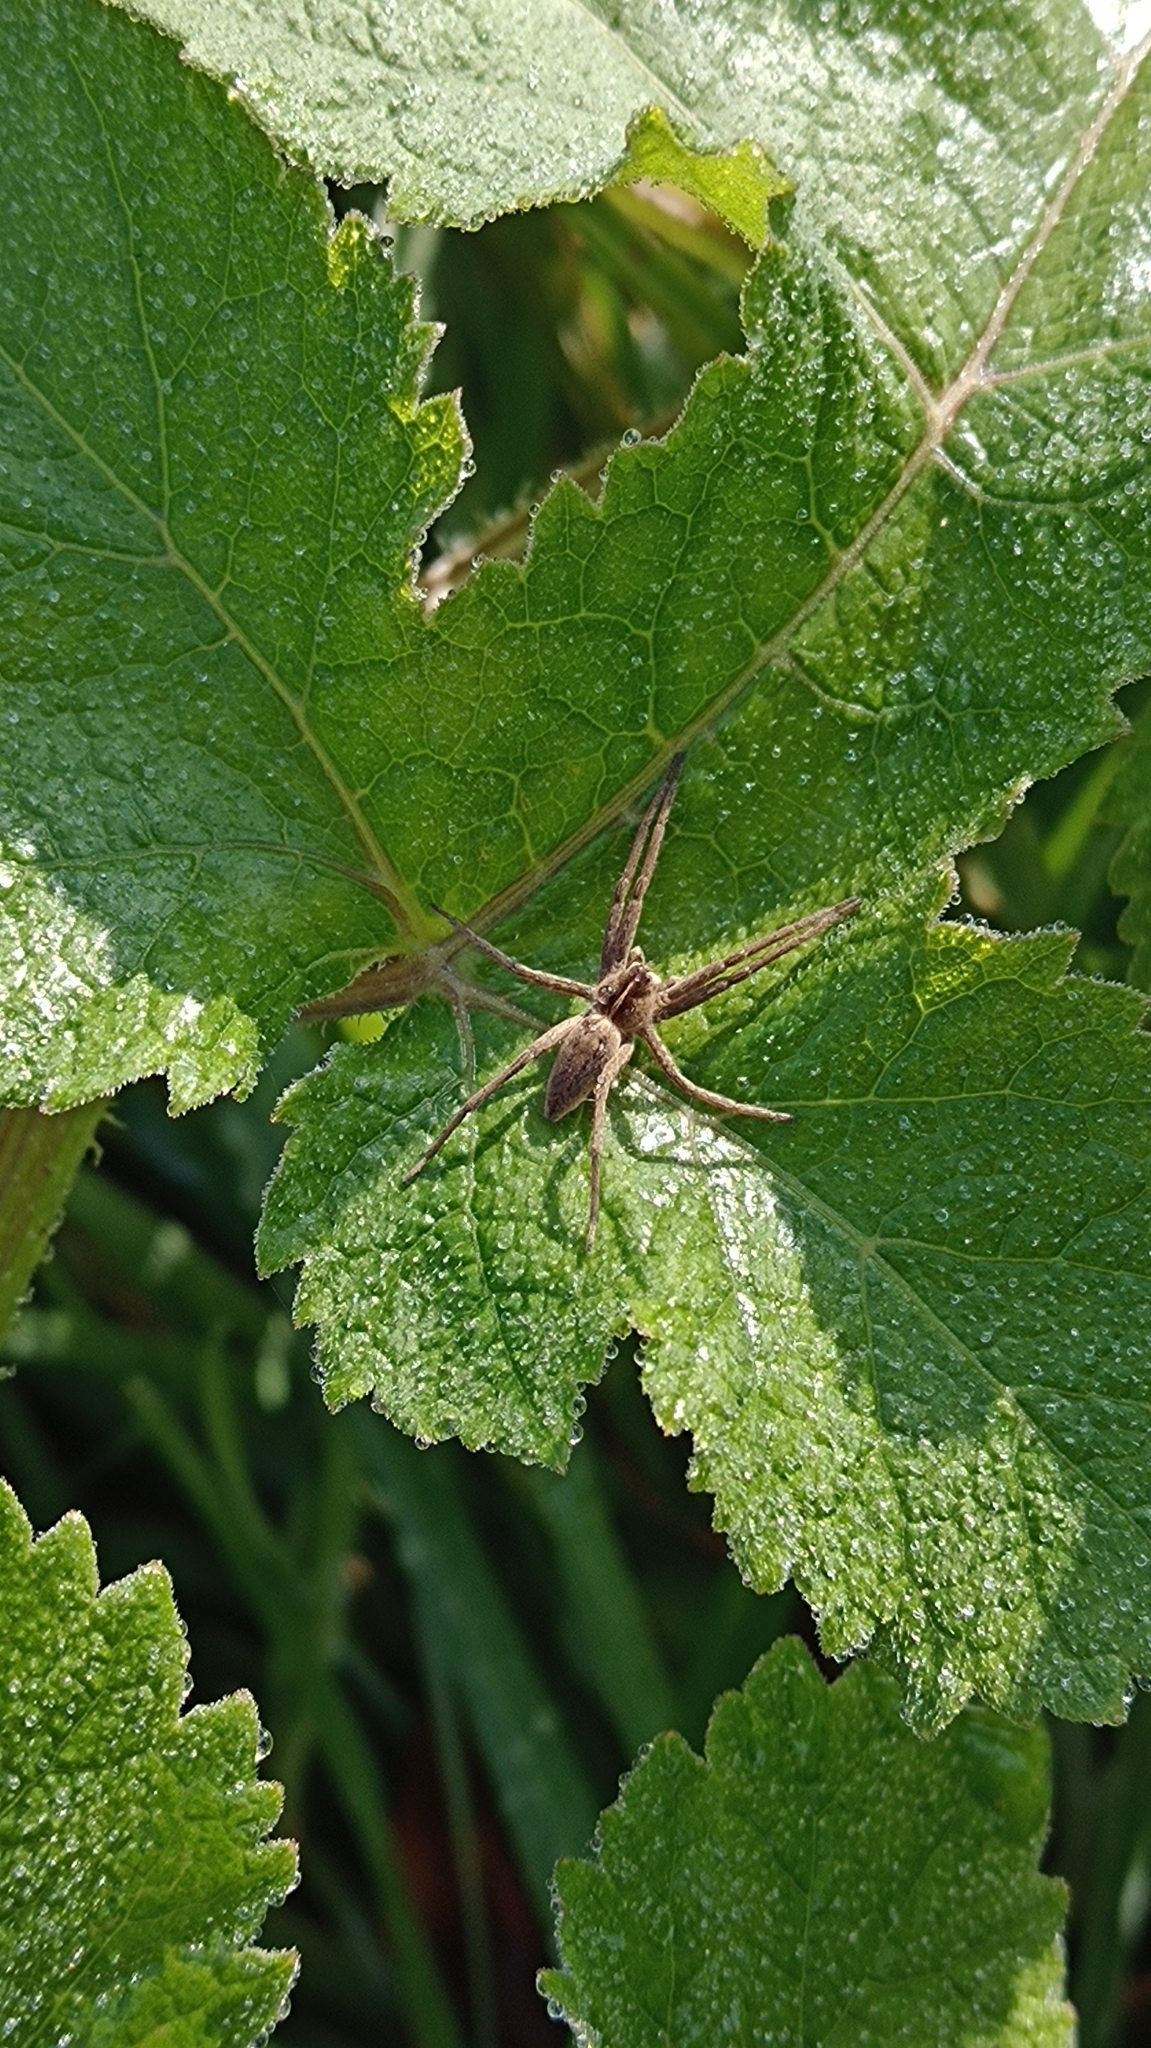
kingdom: Animalia
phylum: Arthropoda
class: Arachnida
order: Araneae
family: Pisauridae
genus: Pisaura
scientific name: Pisaura mirabilis
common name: Tent spider
